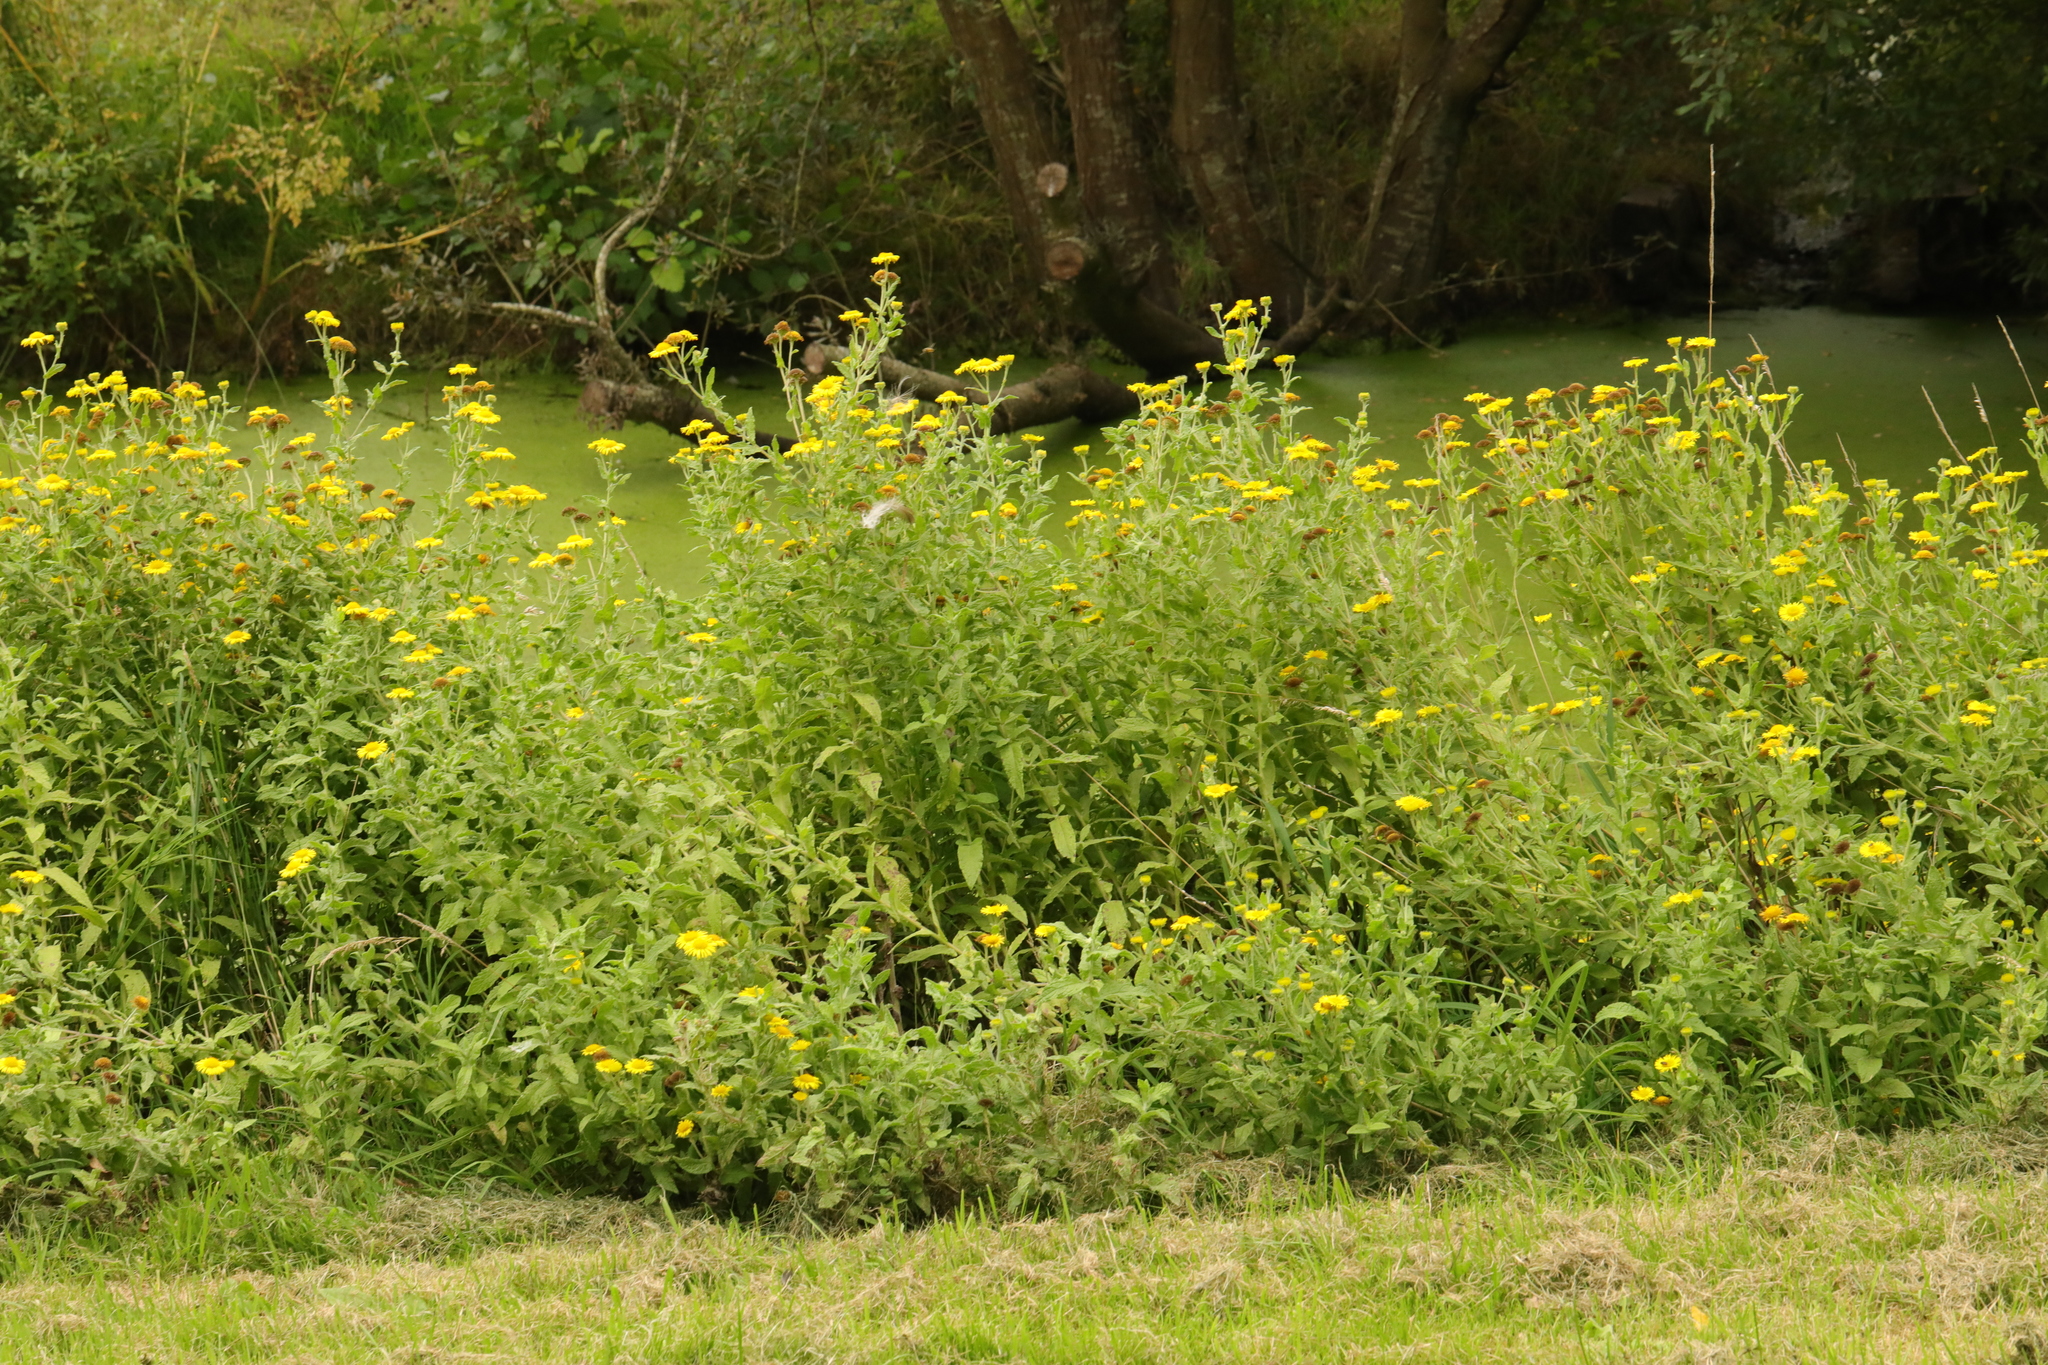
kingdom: Plantae
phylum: Tracheophyta
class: Magnoliopsida
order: Asterales
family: Asteraceae
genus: Pulicaria
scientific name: Pulicaria dysenterica
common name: Common fleabane
